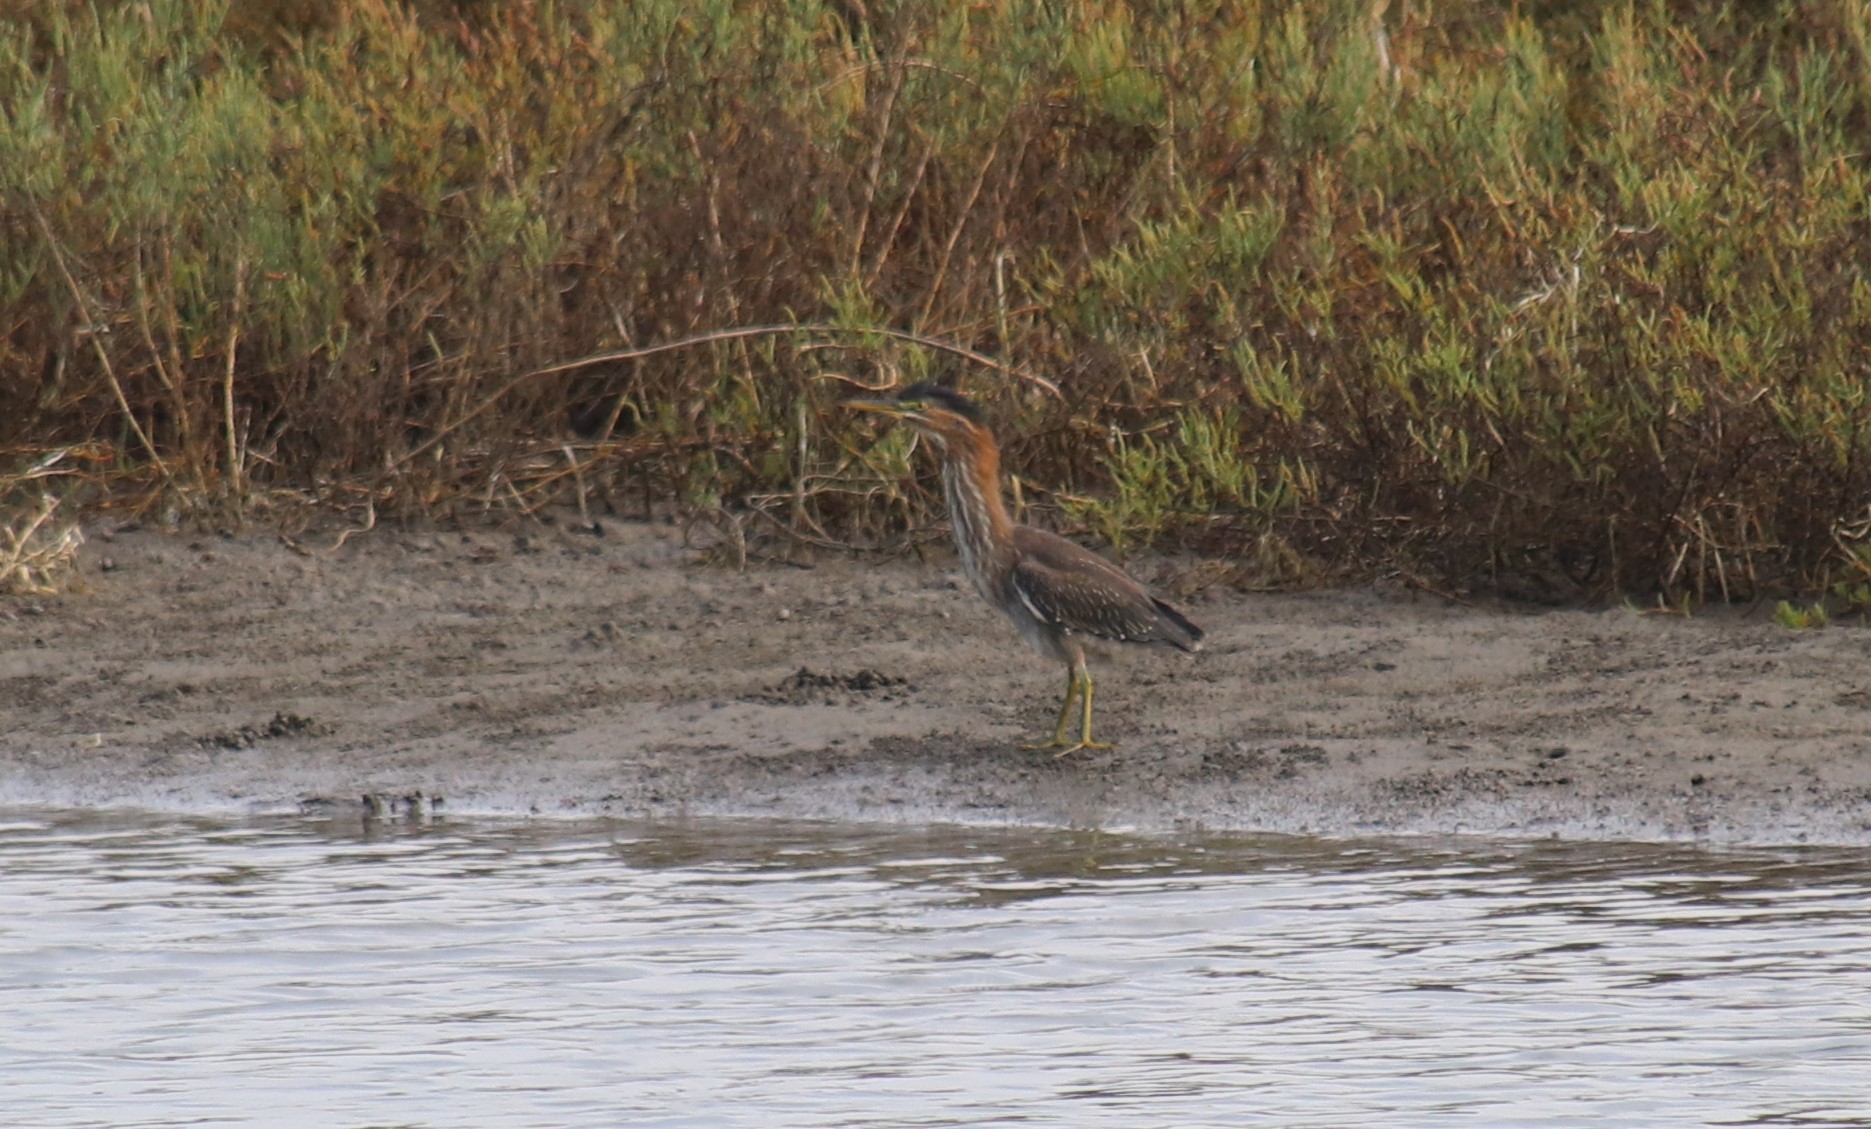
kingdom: Animalia
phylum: Chordata
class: Aves
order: Pelecaniformes
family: Ardeidae
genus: Butorides
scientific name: Butorides virescens
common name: Green heron
